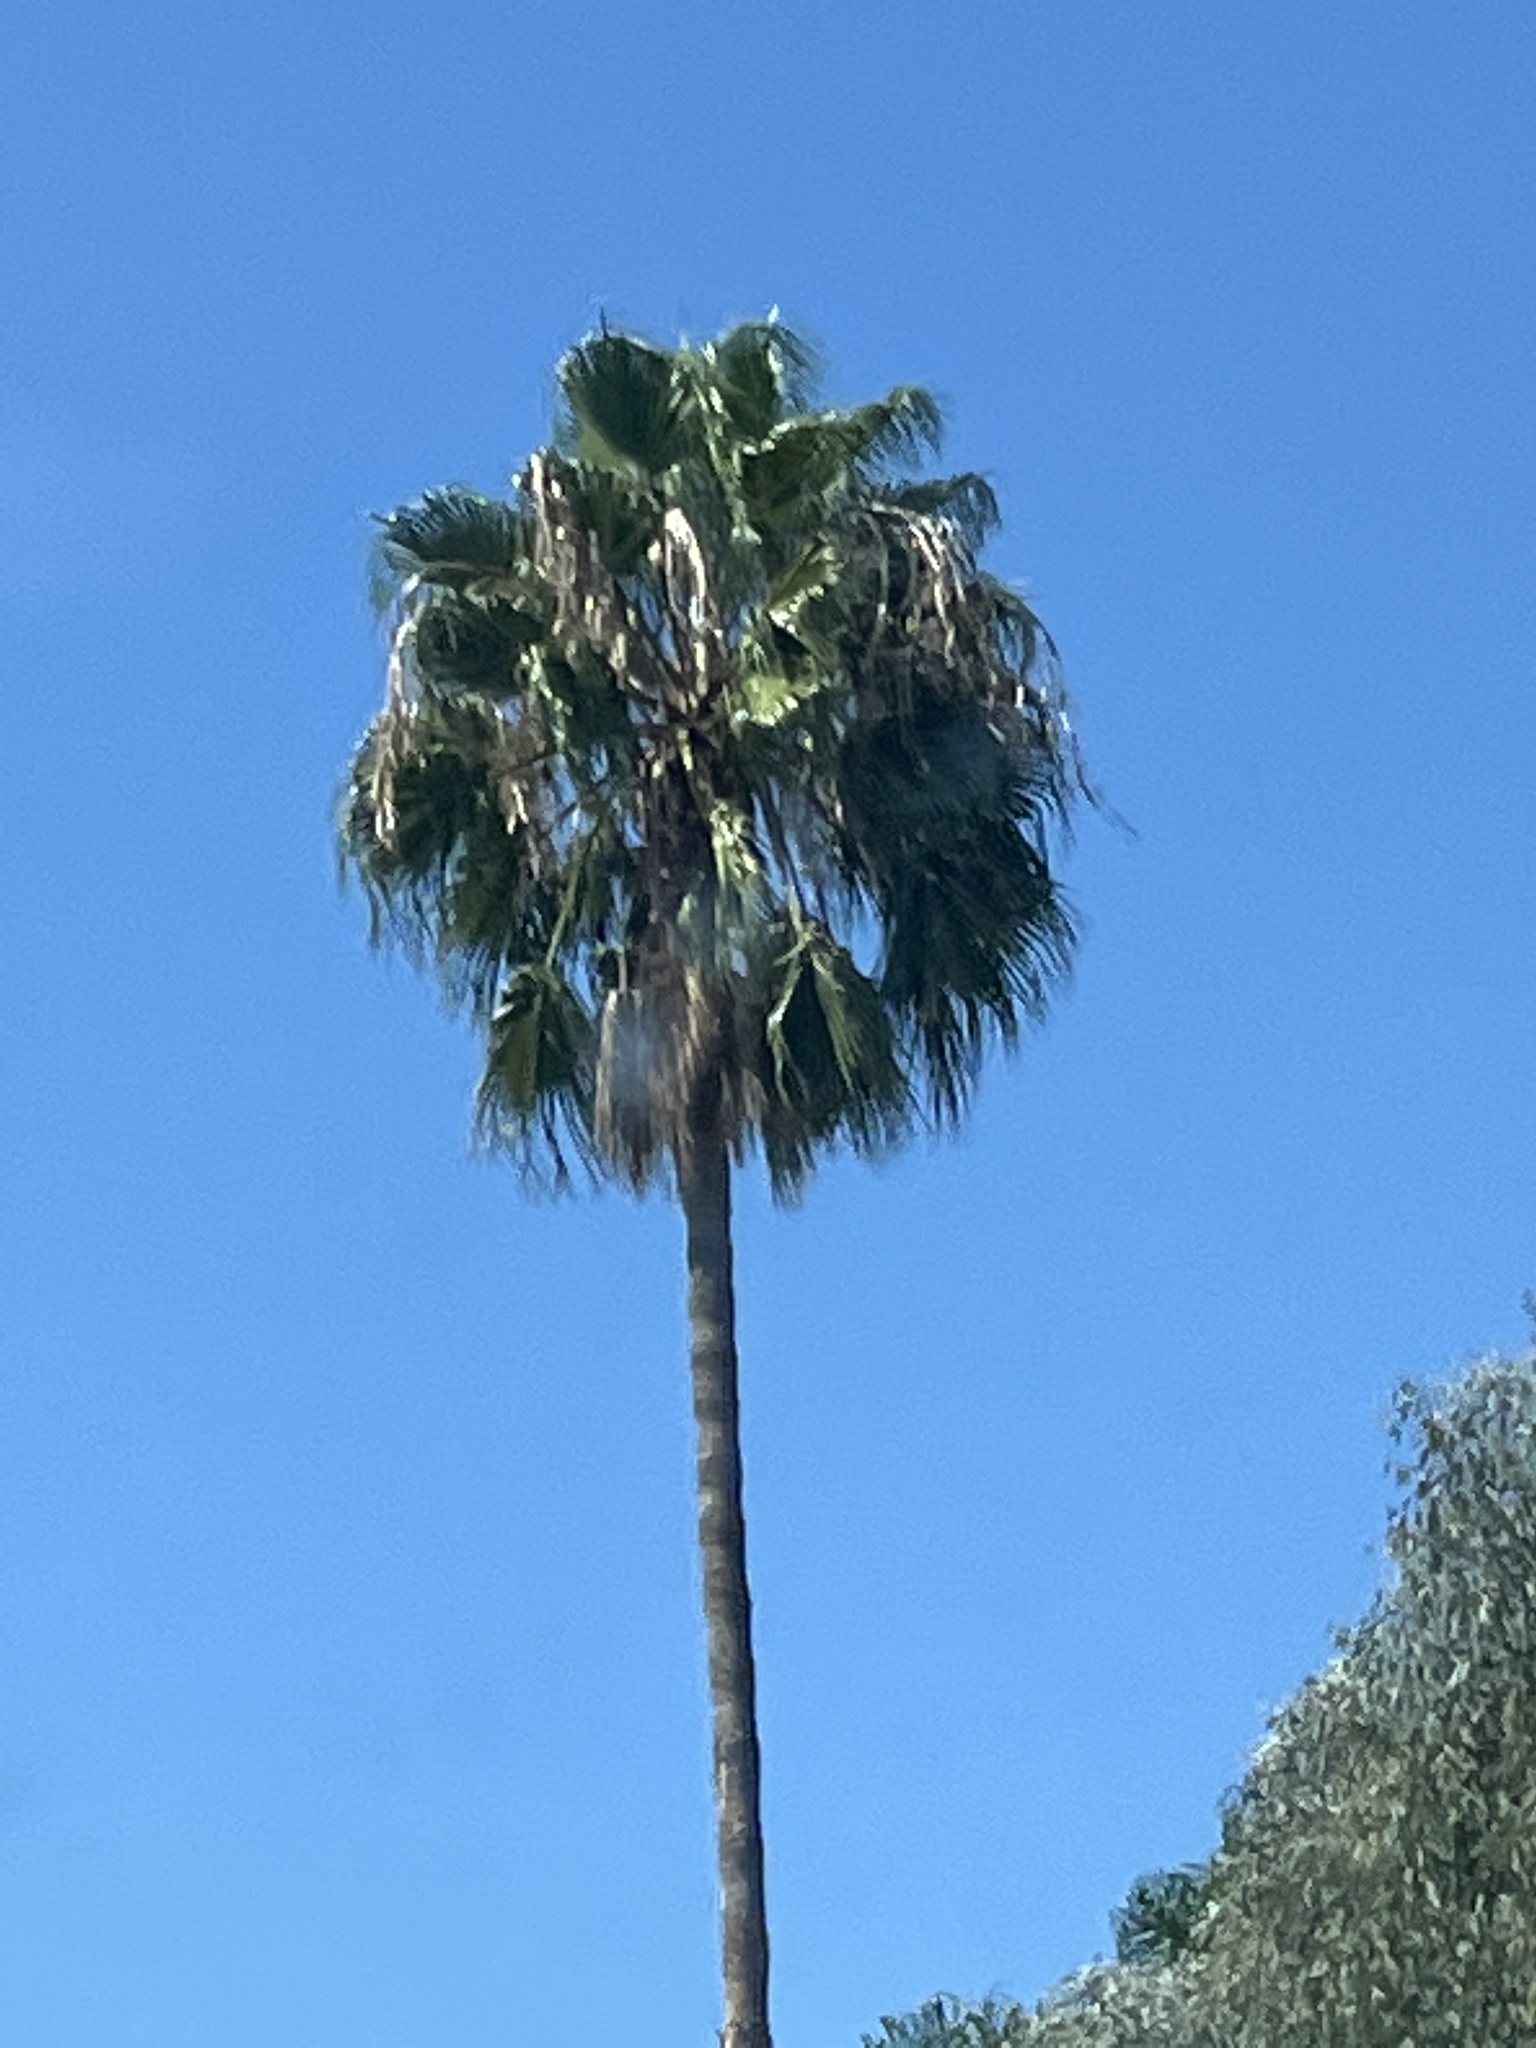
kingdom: Plantae
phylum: Tracheophyta
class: Liliopsida
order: Arecales
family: Arecaceae
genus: Washingtonia
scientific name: Washingtonia robusta
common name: Mexican fan palm
